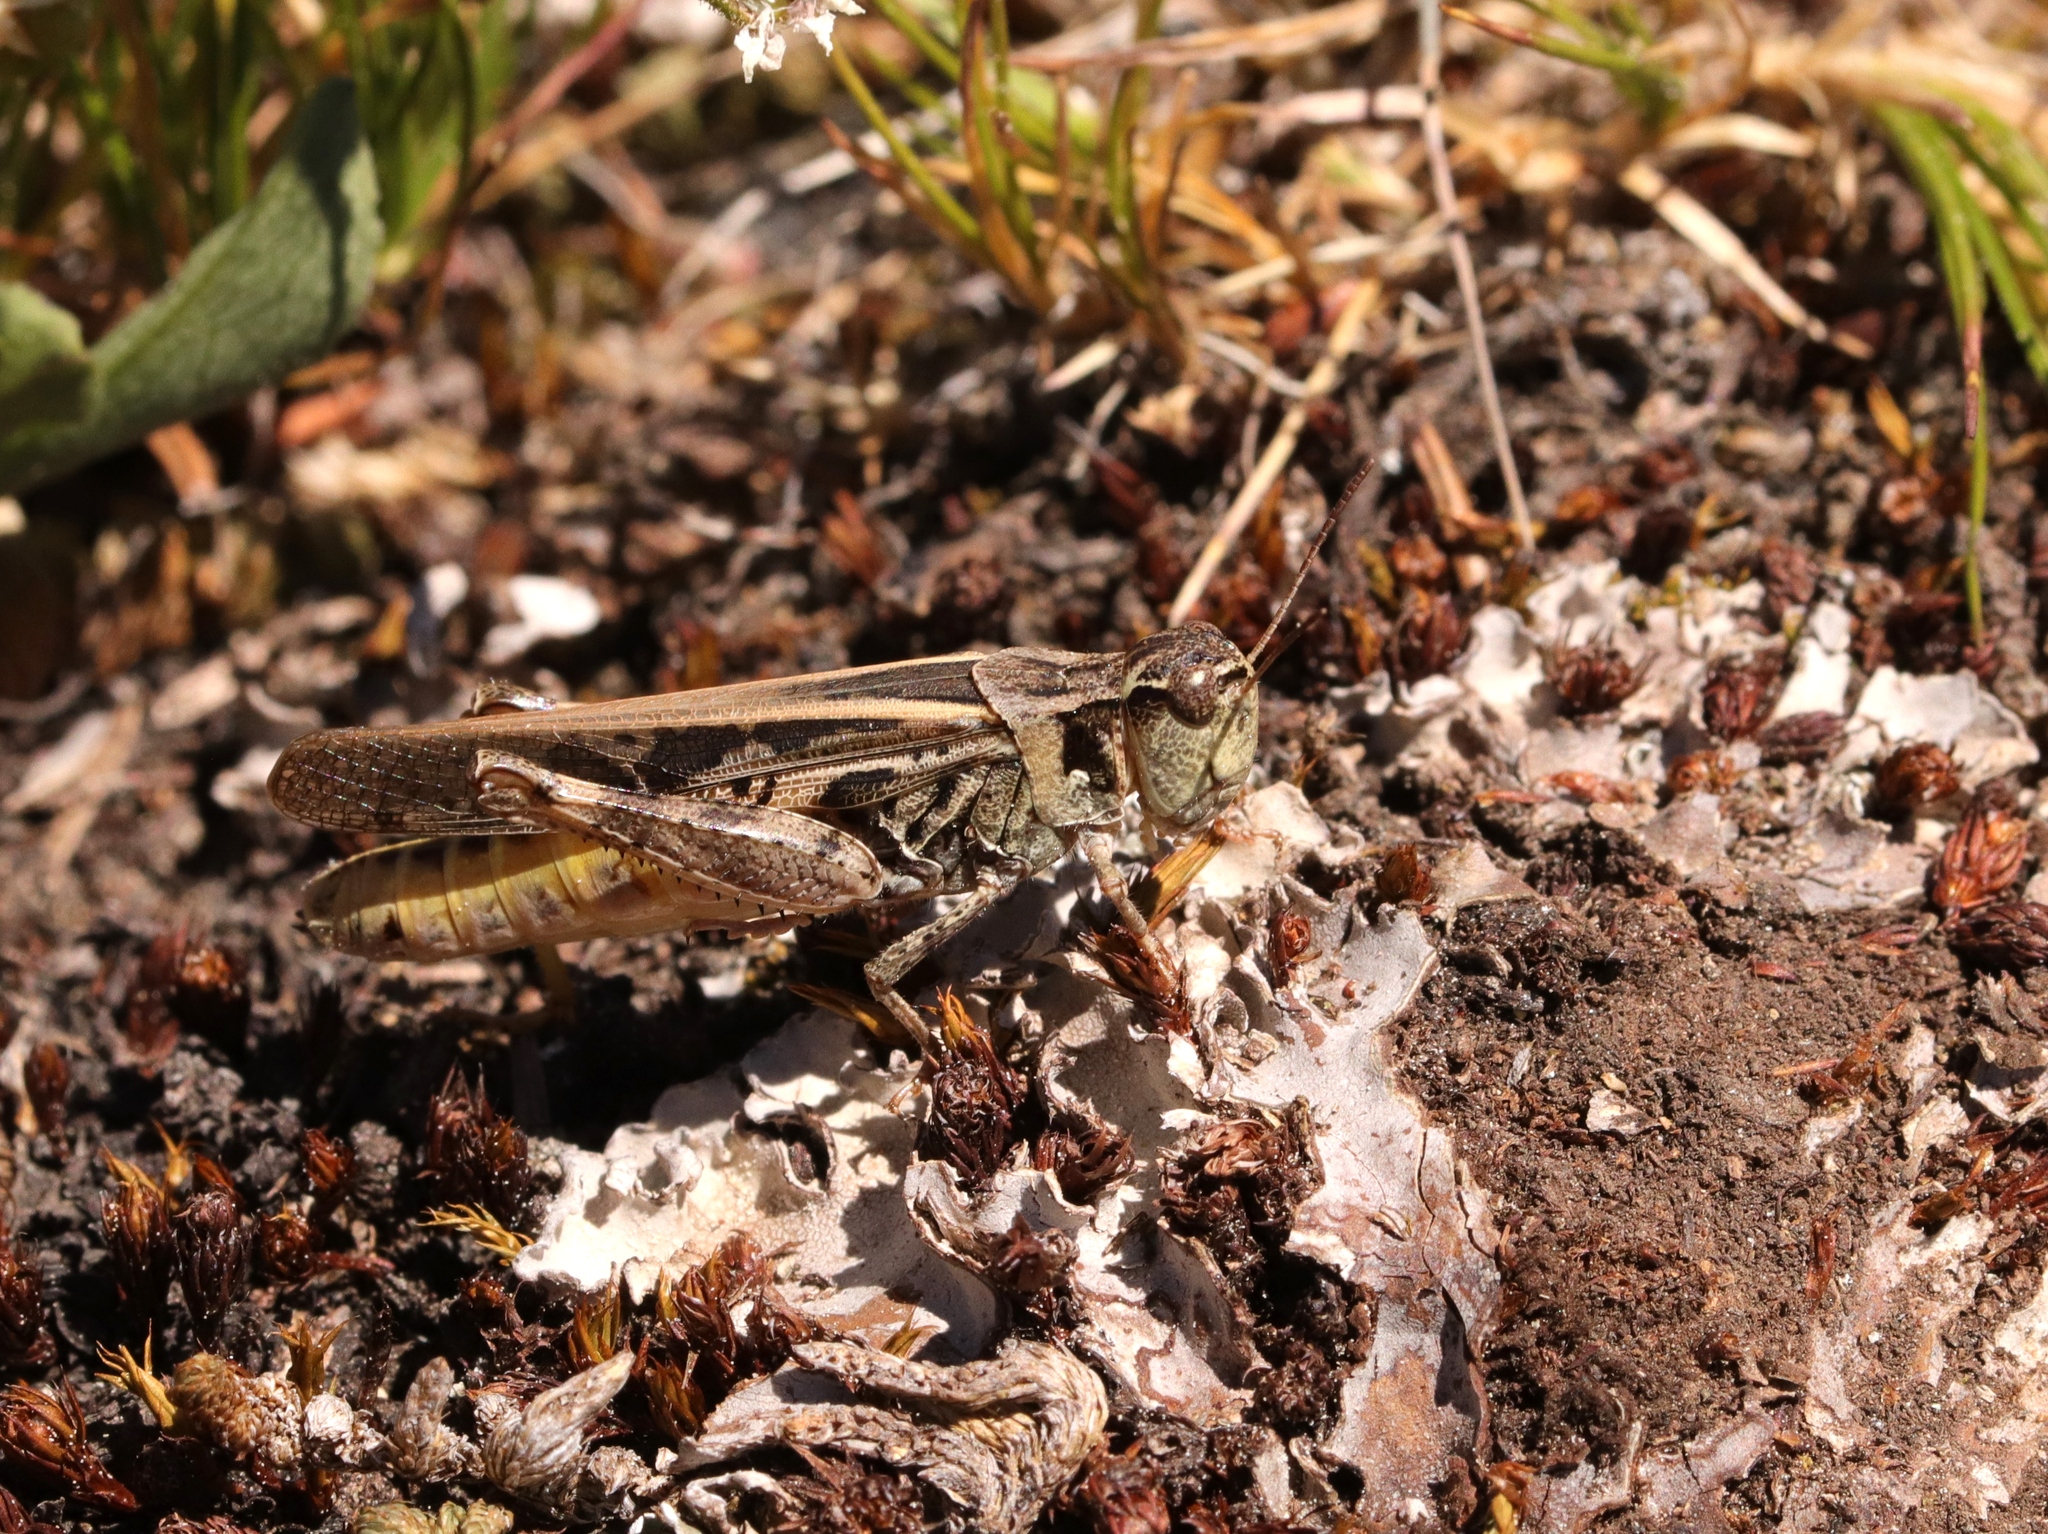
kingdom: Animalia
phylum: Arthropoda
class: Insecta
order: Orthoptera
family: Acrididae
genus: Camnula
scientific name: Camnula pellucida
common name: Clear-winged grasshopper
